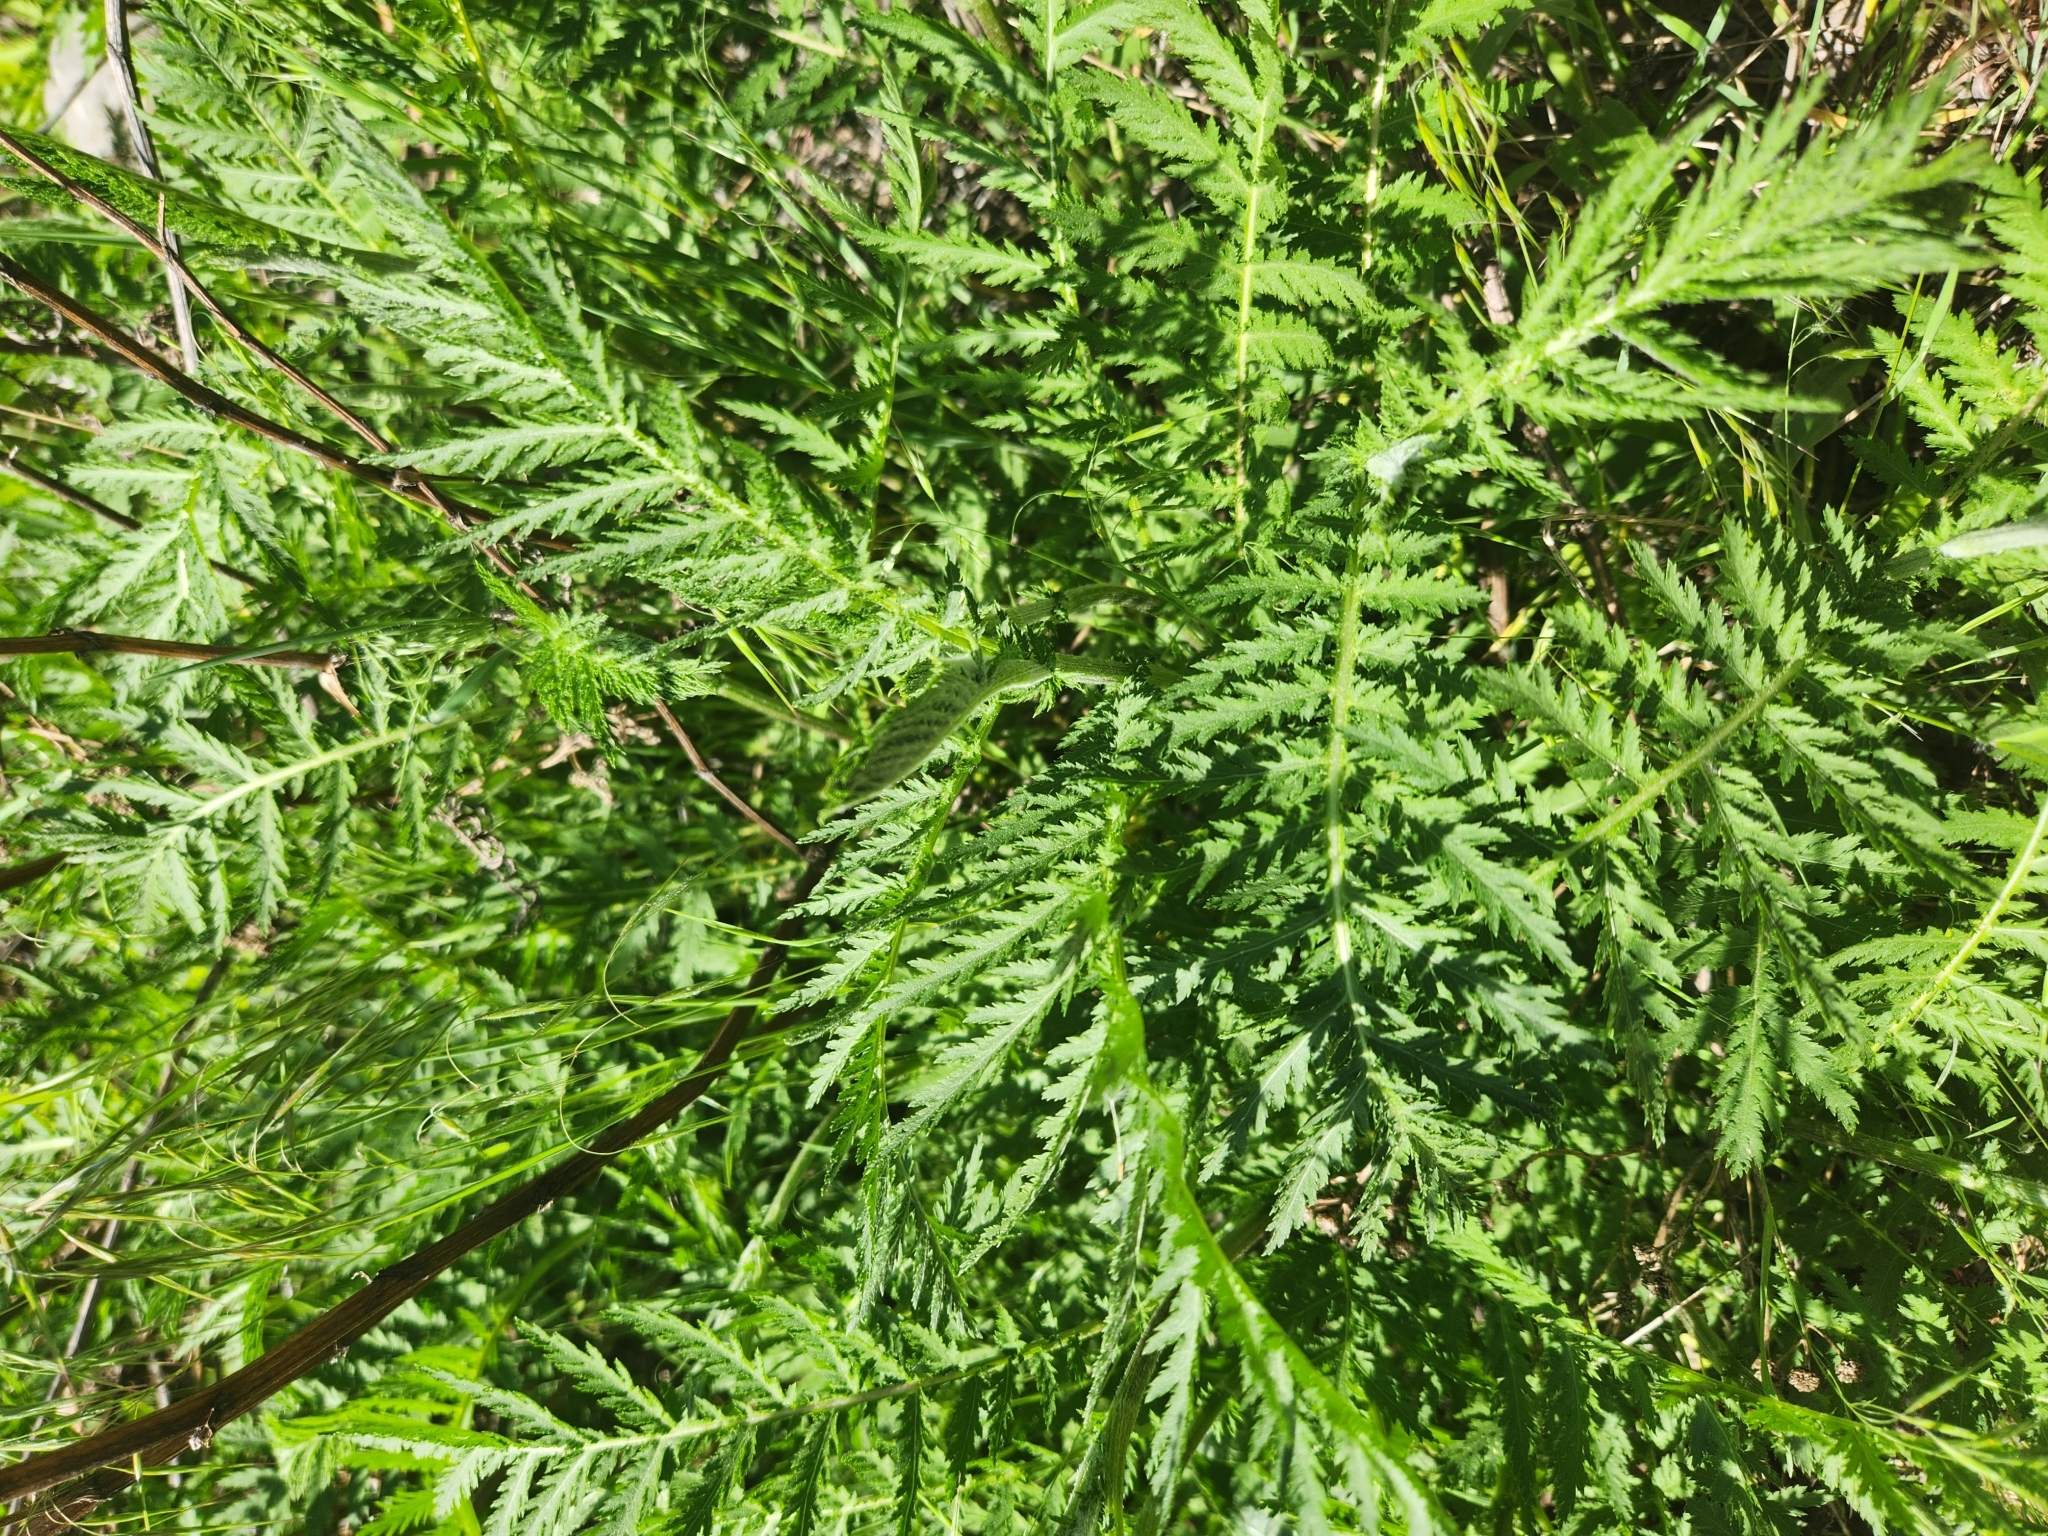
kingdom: Plantae
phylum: Tracheophyta
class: Magnoliopsida
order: Asterales
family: Asteraceae
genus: Tanacetum
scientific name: Tanacetum vulgare
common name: Common tansy
